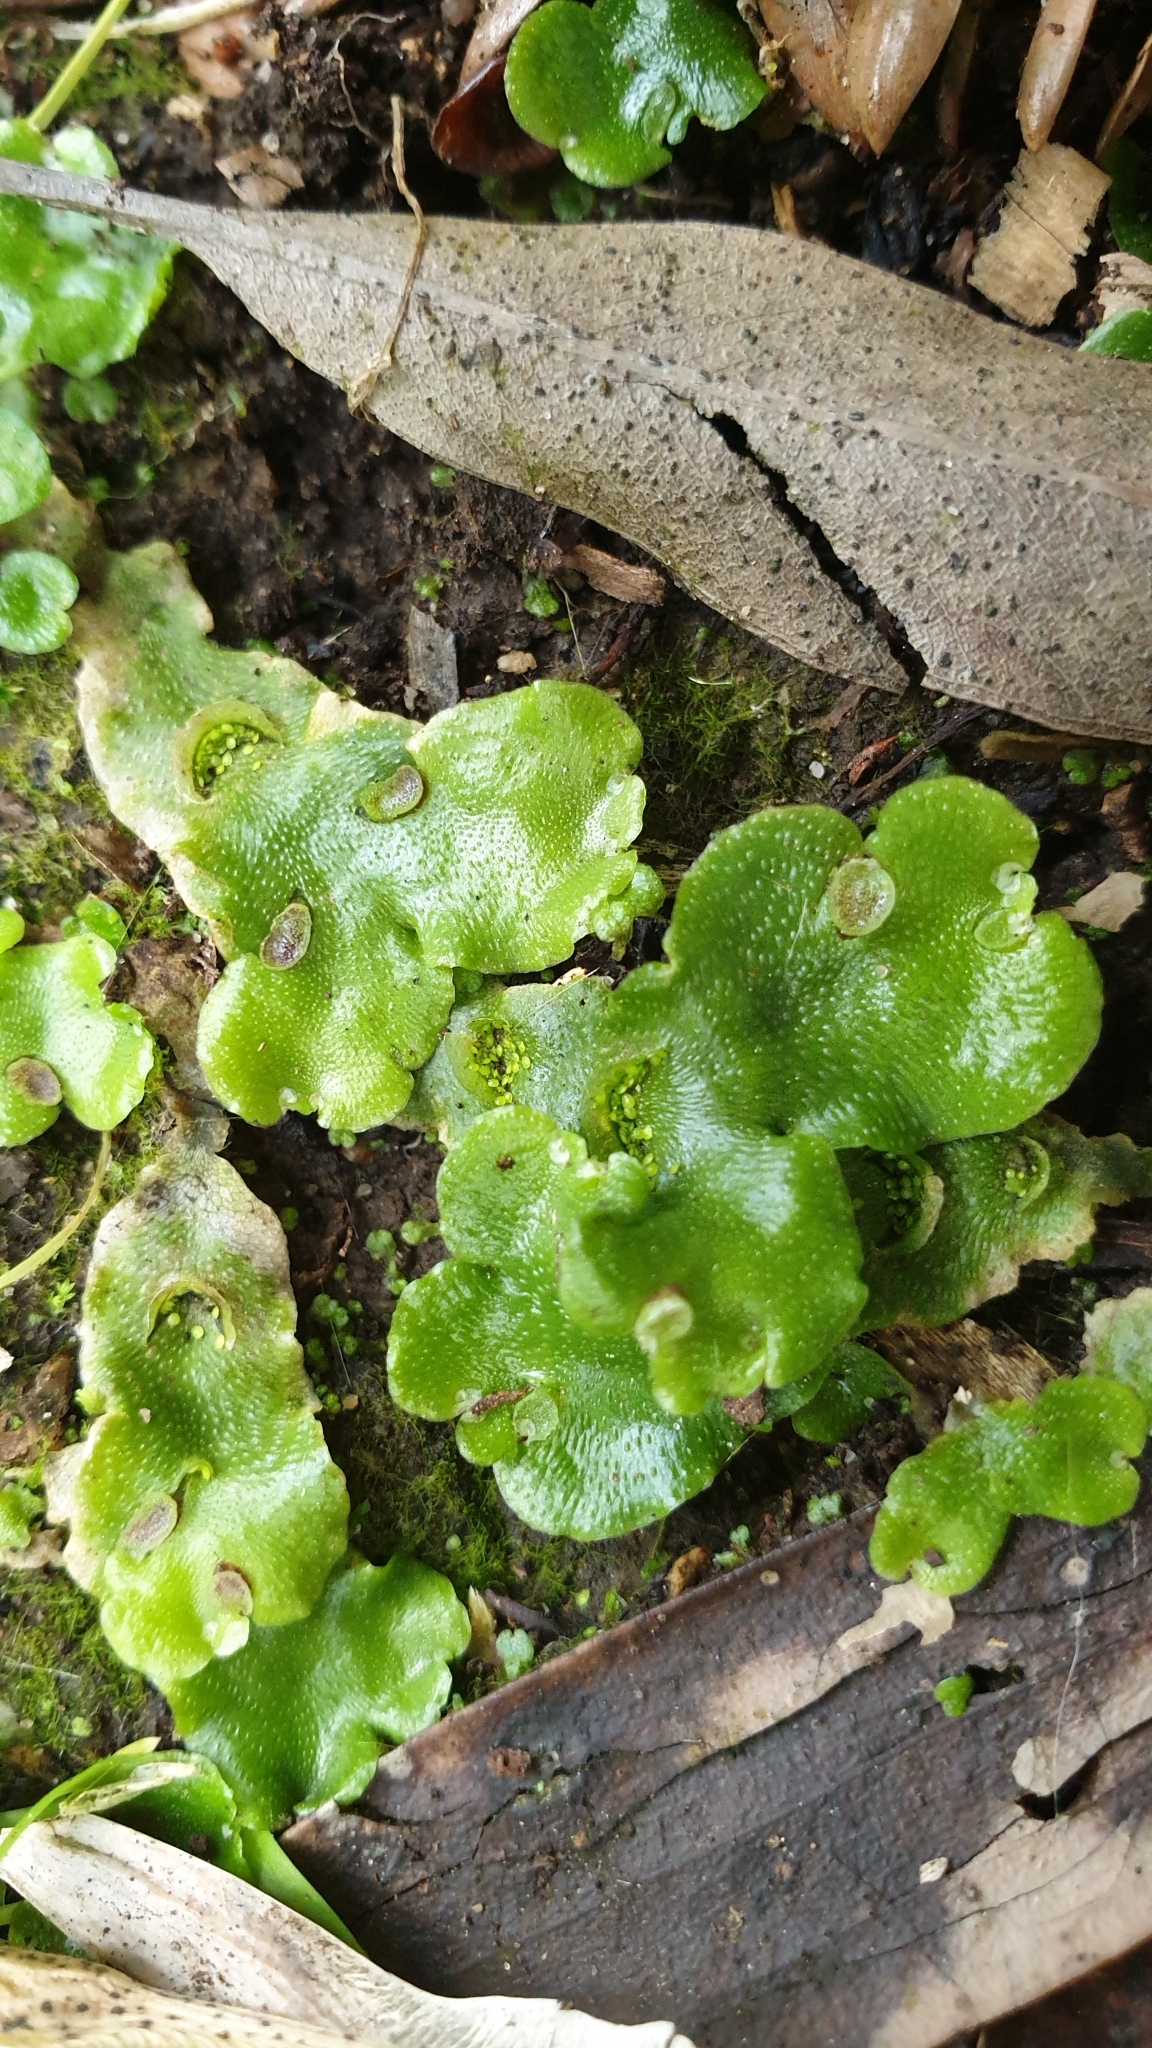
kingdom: Plantae
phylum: Marchantiophyta
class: Marchantiopsida
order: Lunulariales
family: Lunulariaceae
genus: Lunularia
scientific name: Lunularia cruciata
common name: Crescent-cup liverwort
